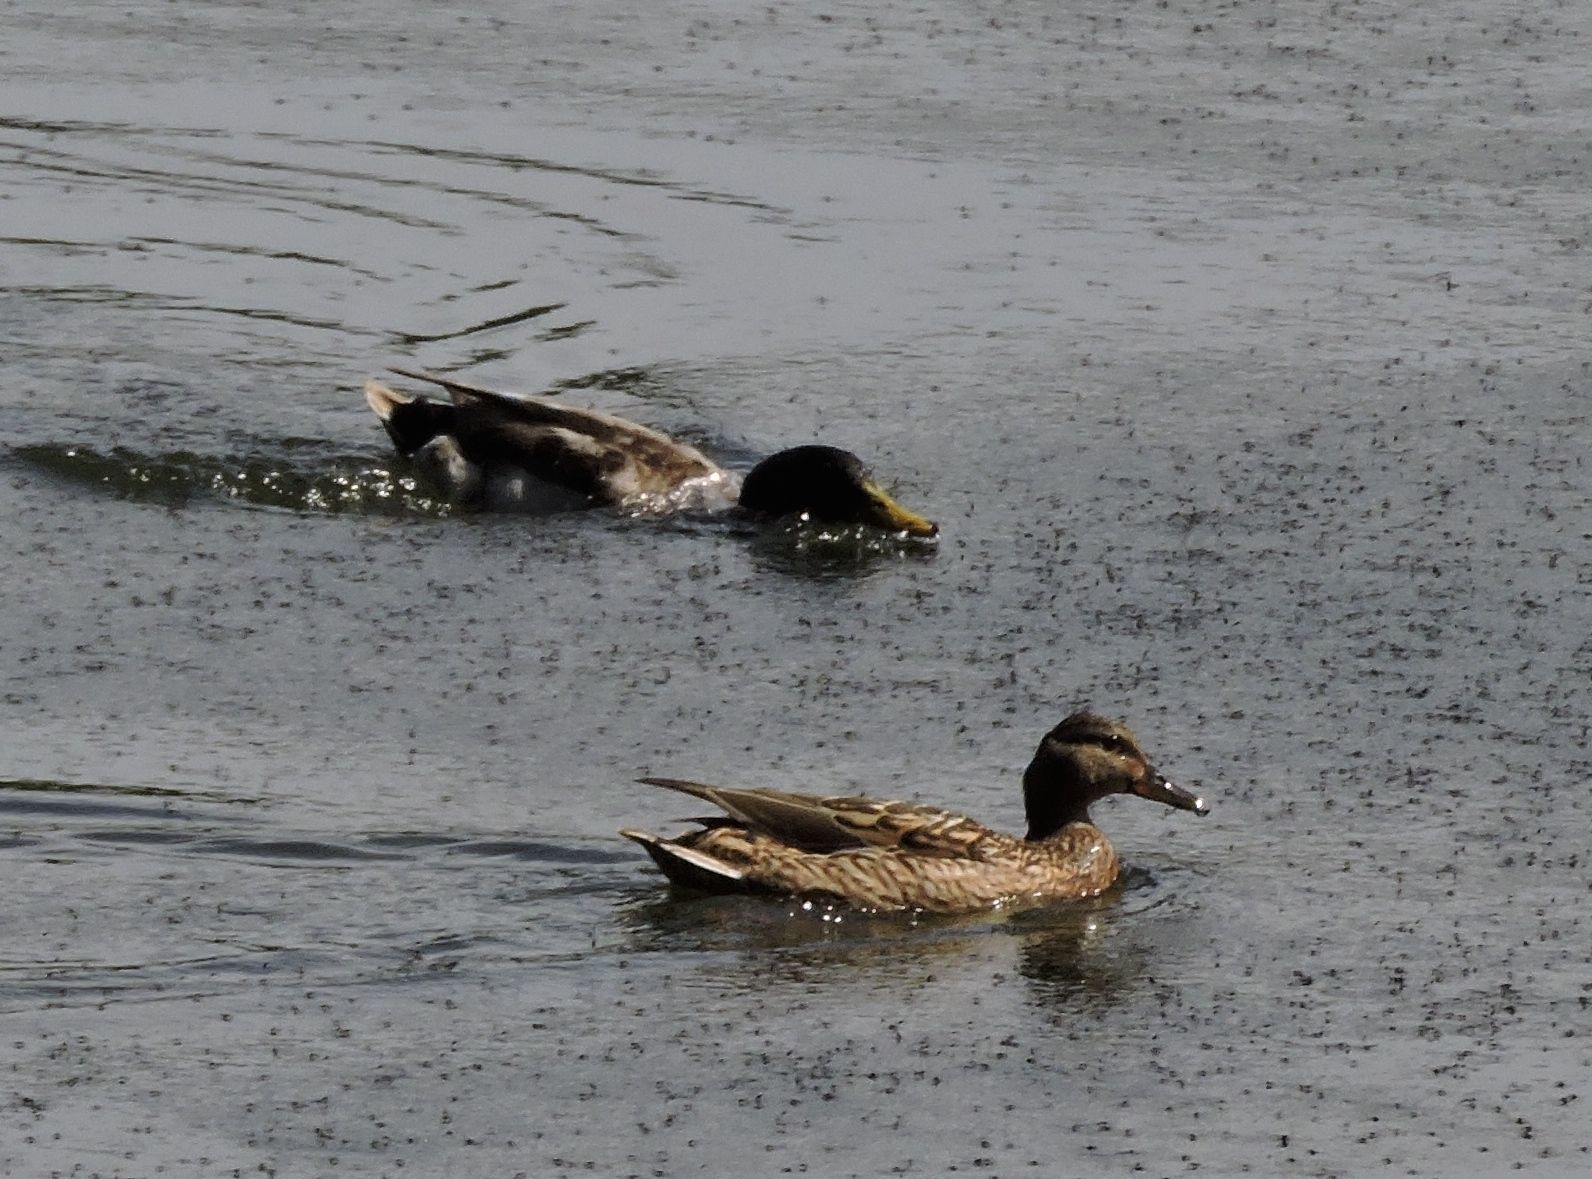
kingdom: Animalia
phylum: Chordata
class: Aves
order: Anseriformes
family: Anatidae
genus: Anas
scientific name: Anas platyrhynchos
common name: Mallard
